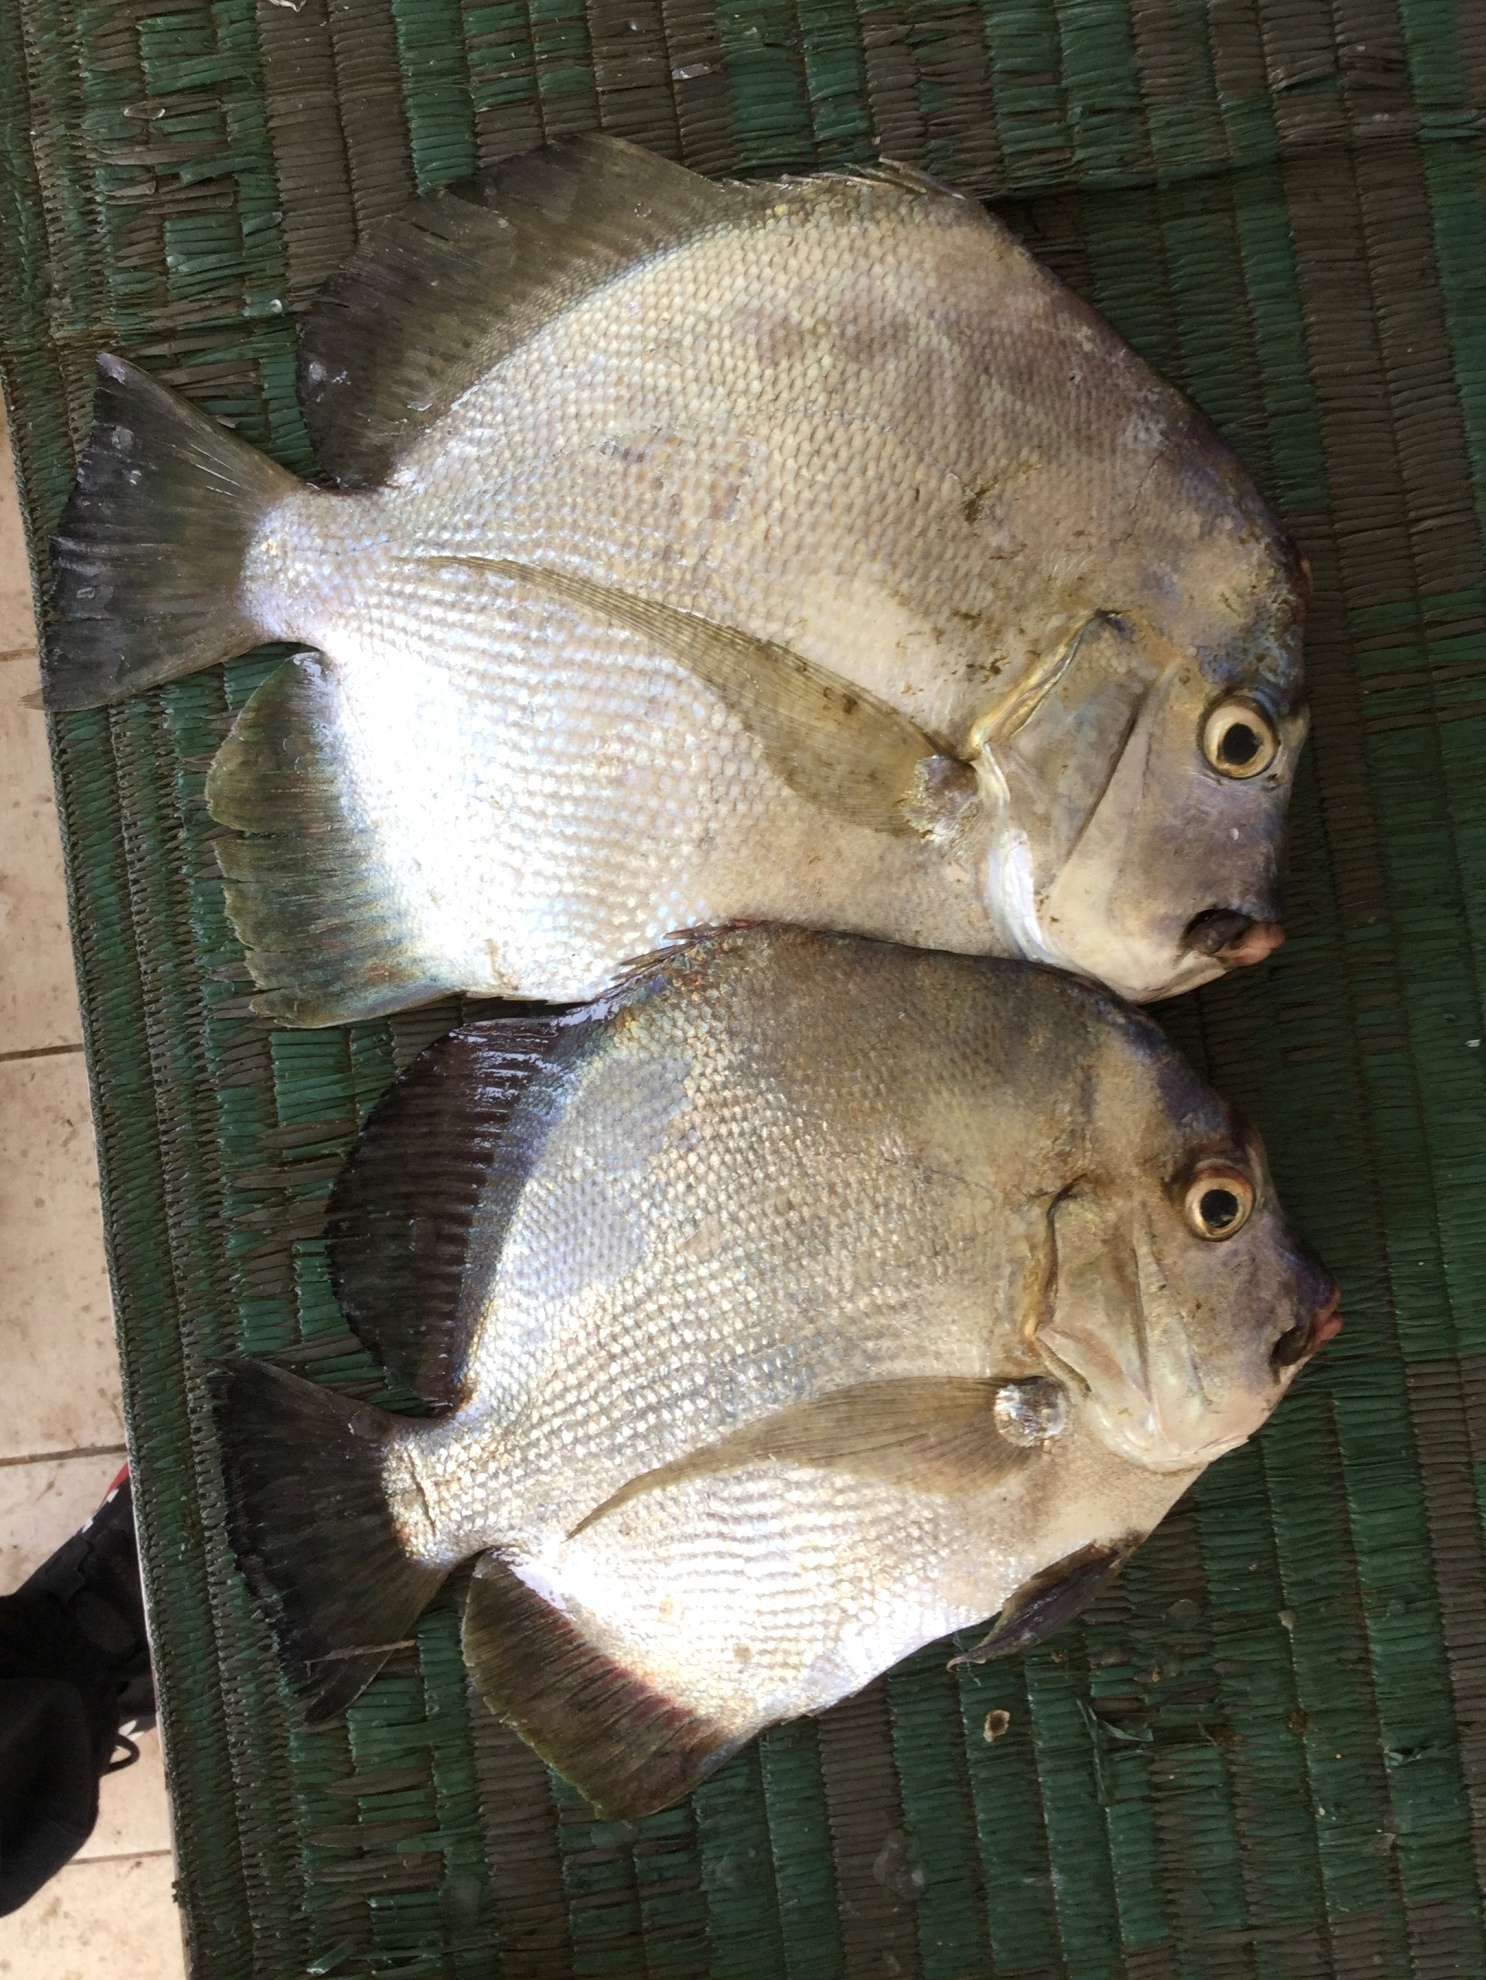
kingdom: Animalia
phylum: Chordata
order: Perciformes
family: Drepaneidae
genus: Drepane
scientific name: Drepane longimana
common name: Concertina fish
